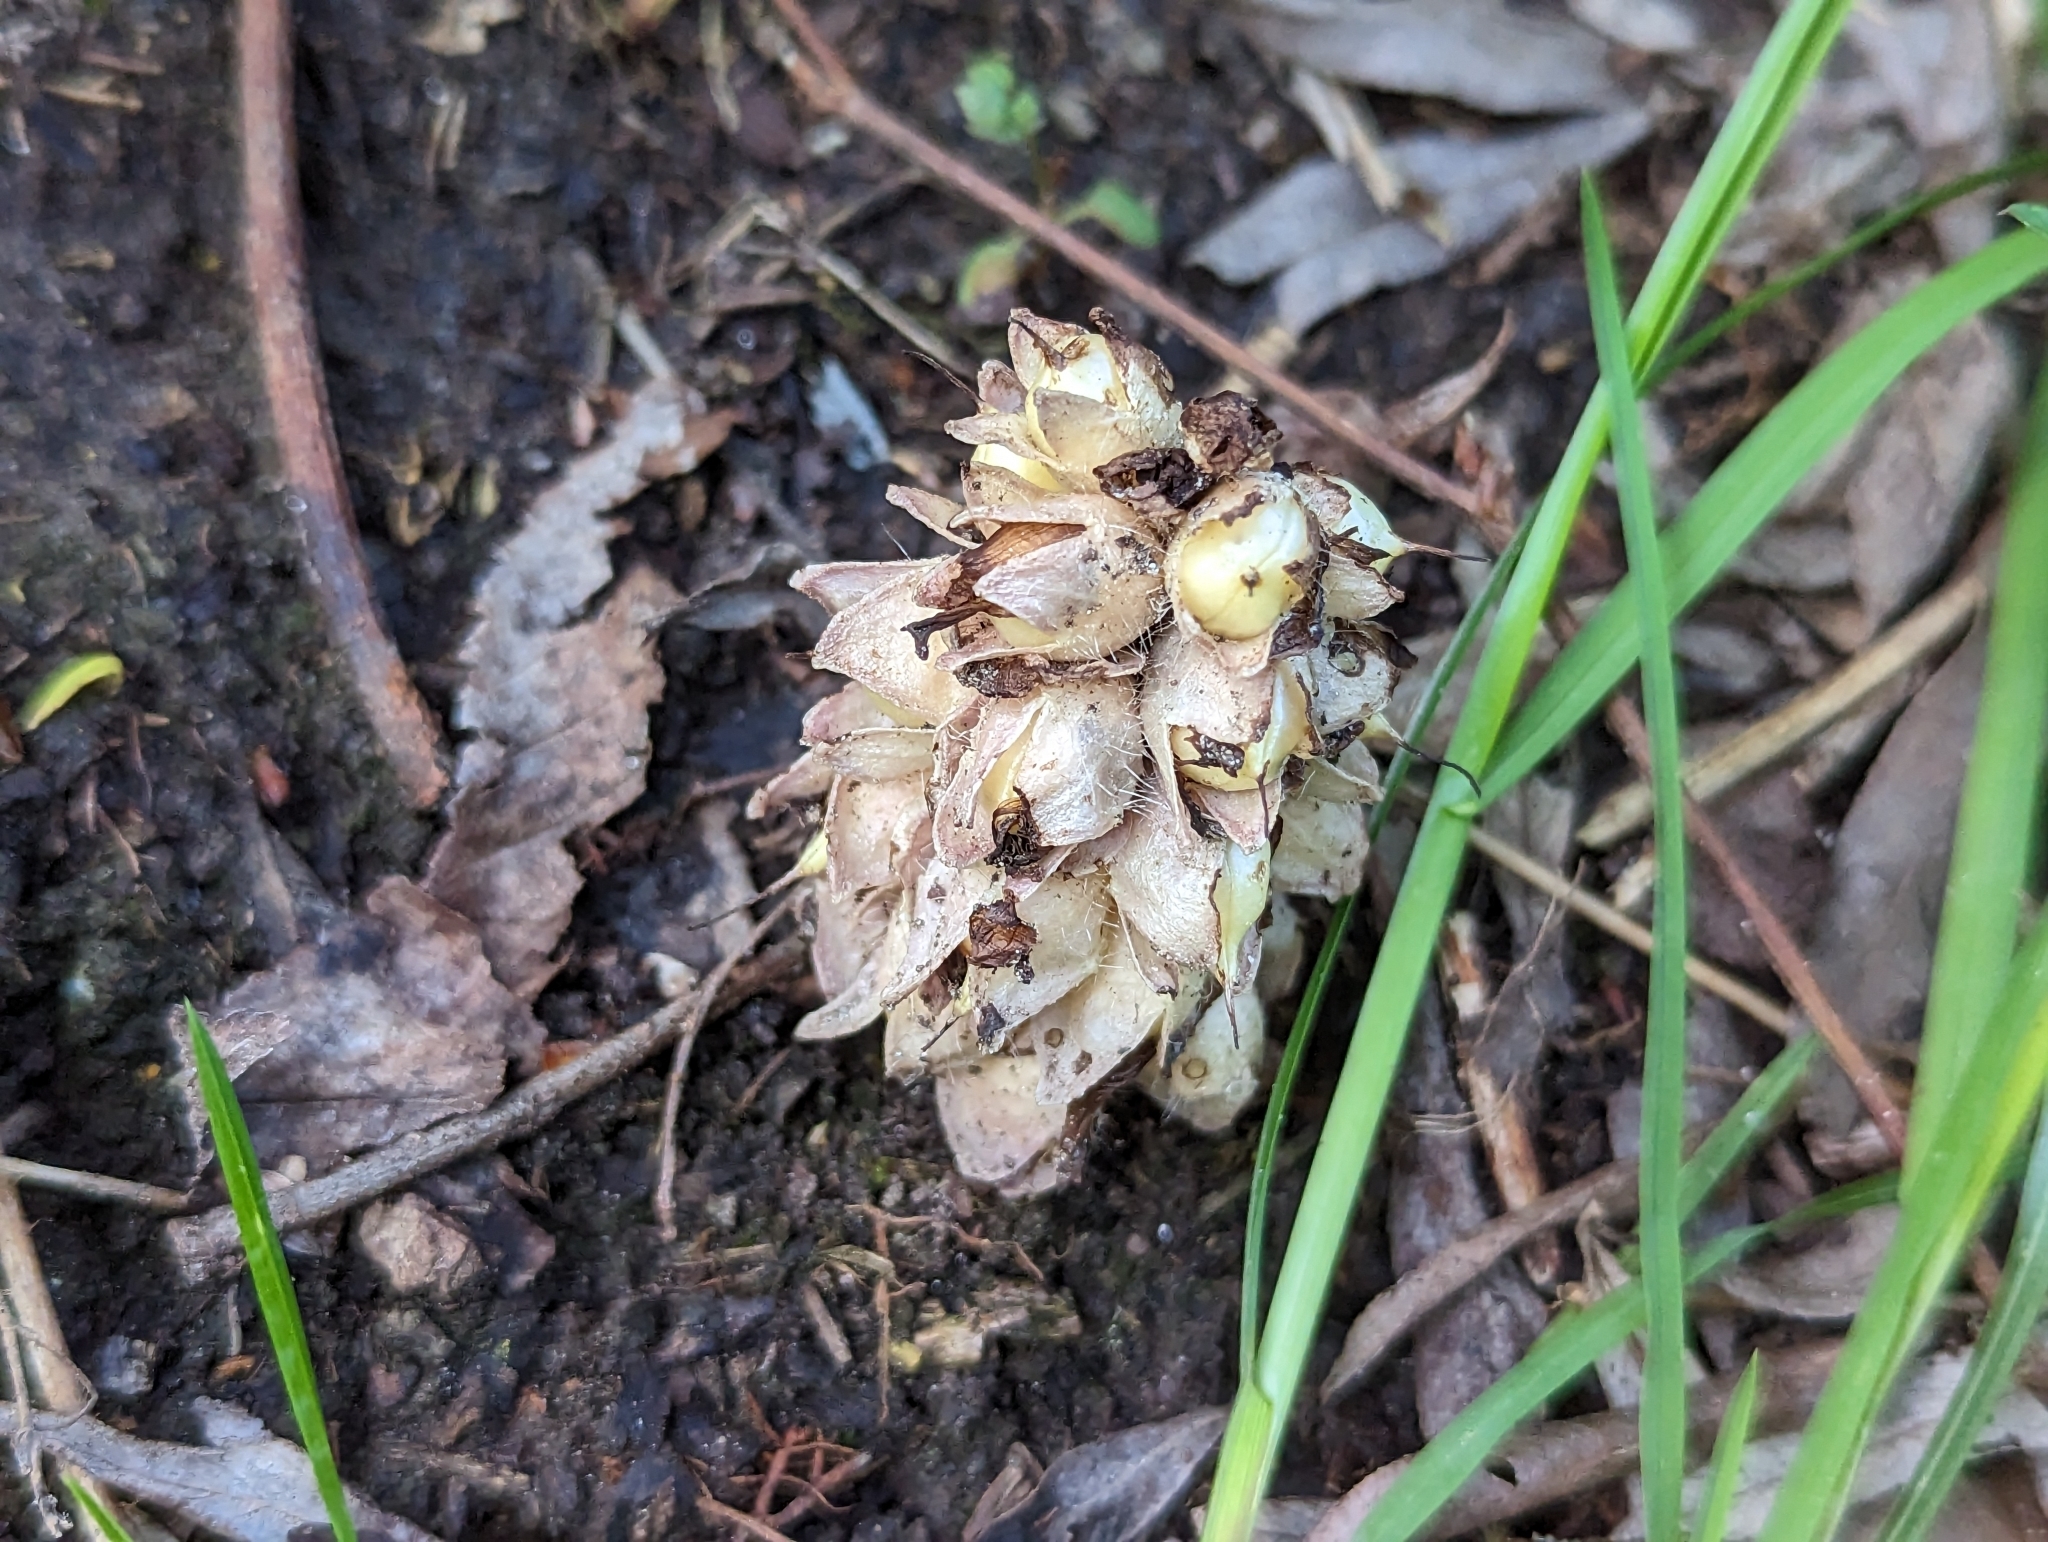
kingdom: Plantae
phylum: Tracheophyta
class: Magnoliopsida
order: Lamiales
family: Orobanchaceae
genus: Lathraea
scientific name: Lathraea squamaria
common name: Toothwort
